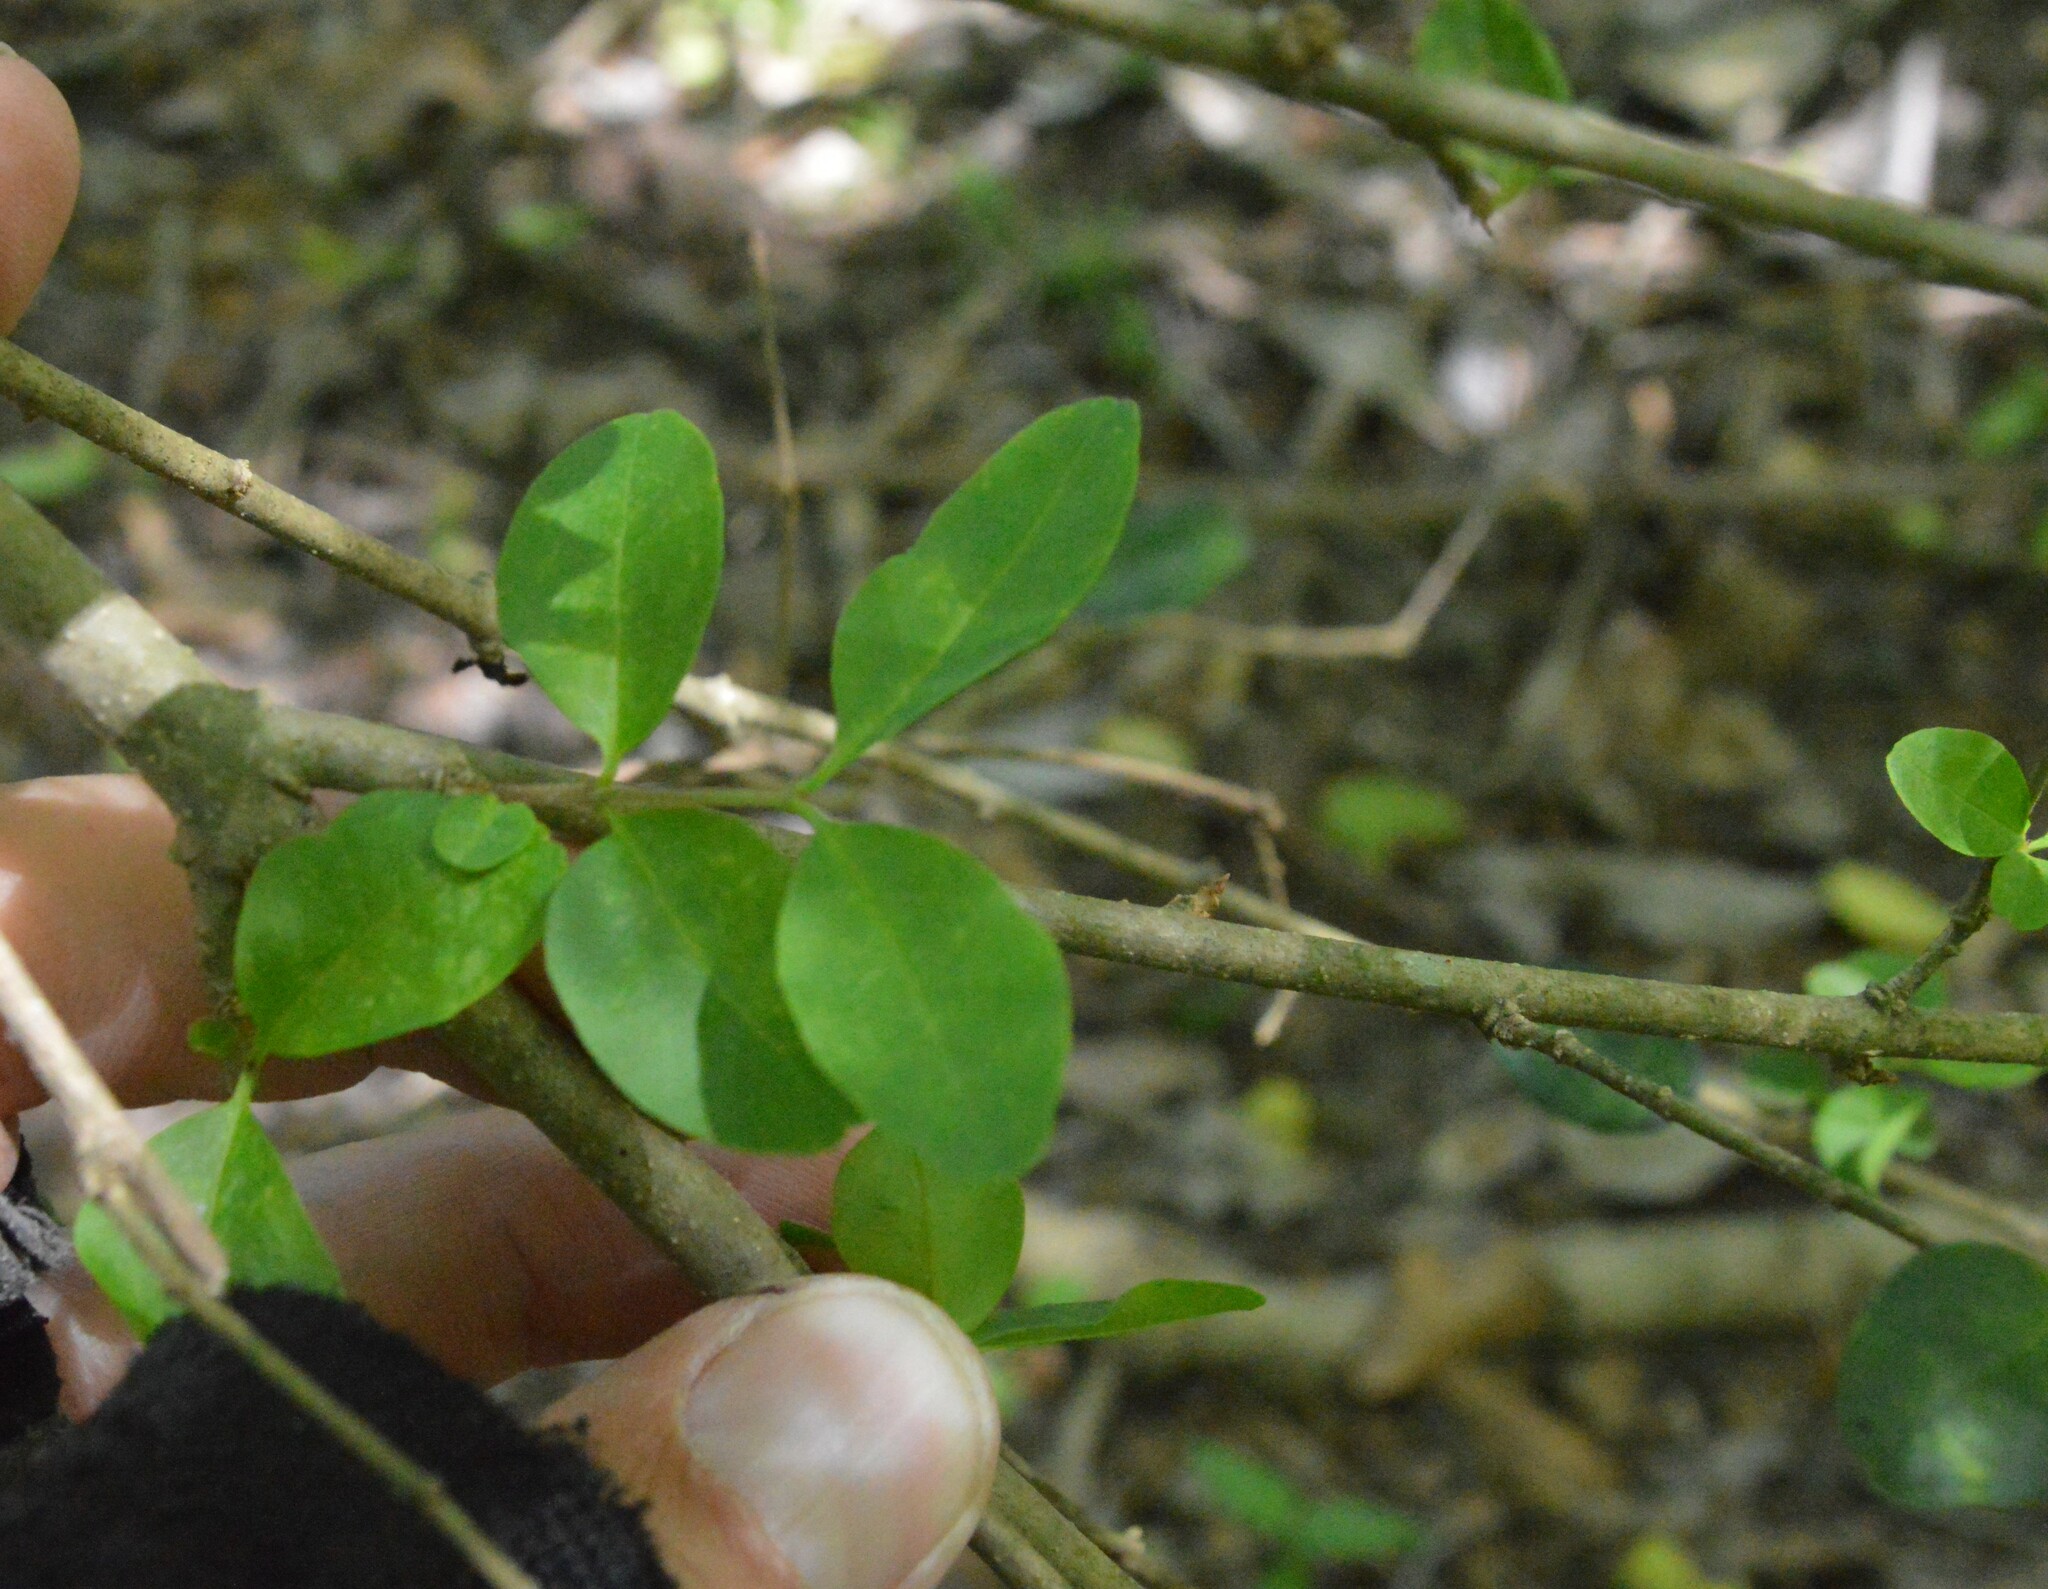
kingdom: Plantae
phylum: Tracheophyta
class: Magnoliopsida
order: Lamiales
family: Oleaceae
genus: Ligustrum
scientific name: Ligustrum sinense
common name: Chinese privet
